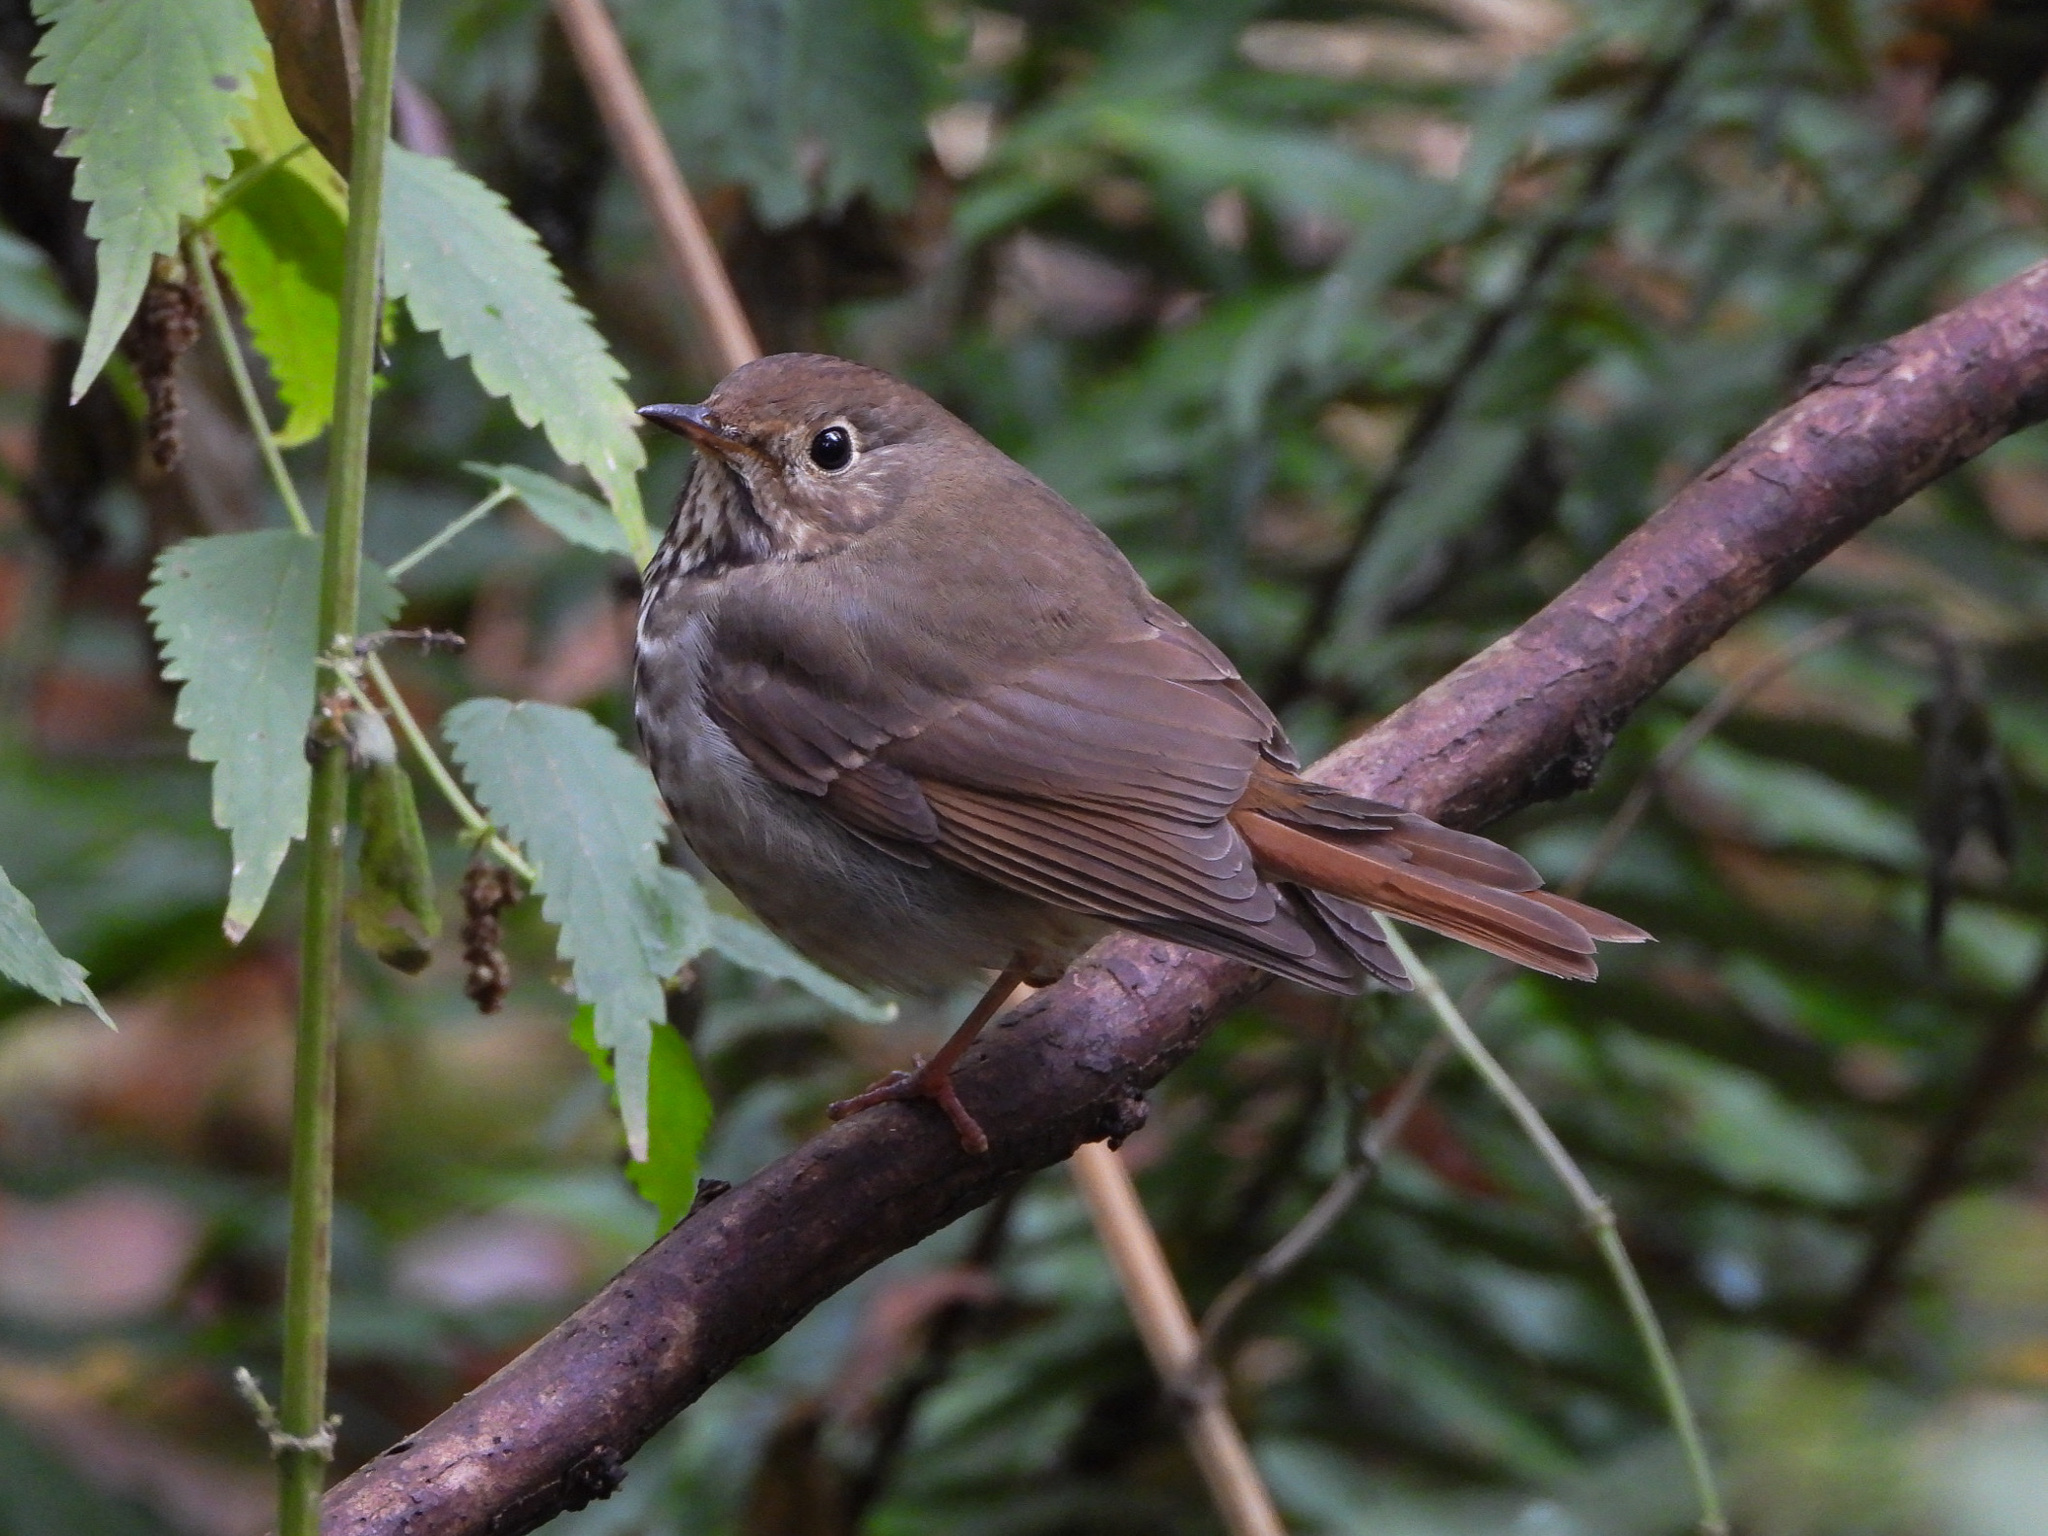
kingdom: Animalia
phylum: Chordata
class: Aves
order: Passeriformes
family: Turdidae
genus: Catharus
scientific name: Catharus guttatus
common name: Hermit thrush
